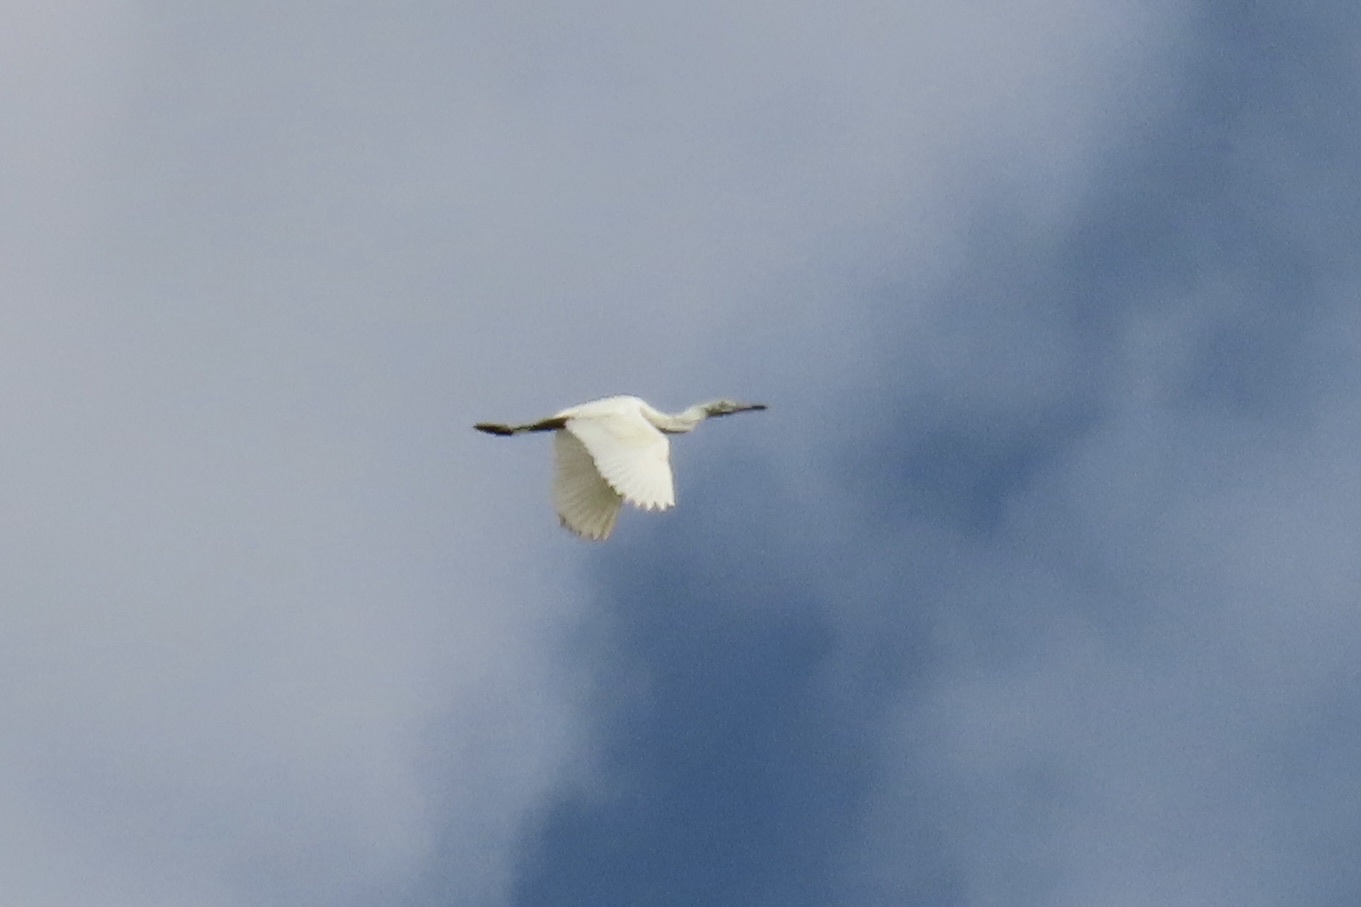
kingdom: Animalia
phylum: Chordata
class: Aves
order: Pelecaniformes
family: Ardeidae
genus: Egretta
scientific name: Egretta caerulea
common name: Little blue heron
